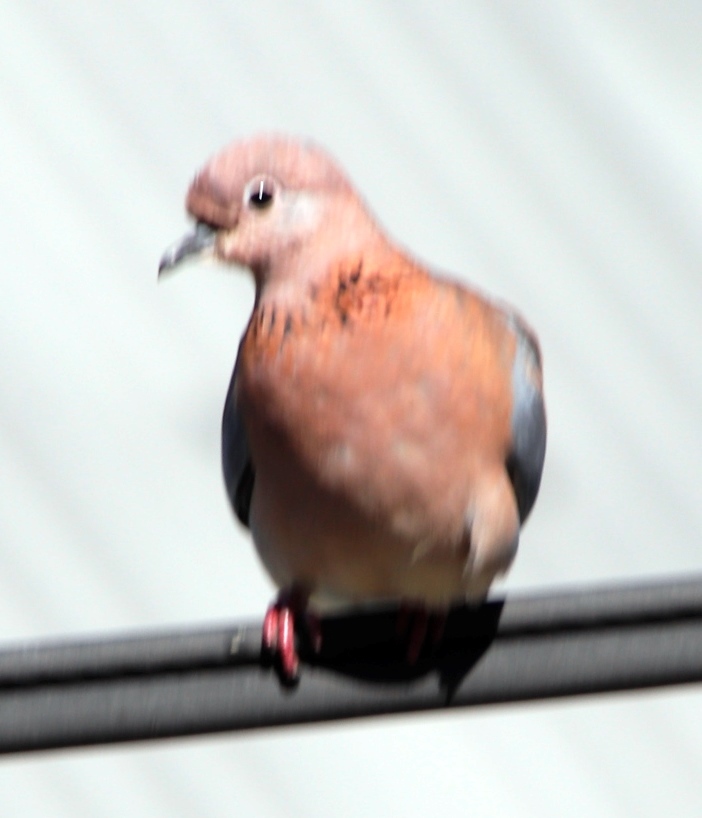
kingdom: Animalia
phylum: Chordata
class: Aves
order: Columbiformes
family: Columbidae
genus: Spilopelia
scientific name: Spilopelia senegalensis
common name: Laughing dove
